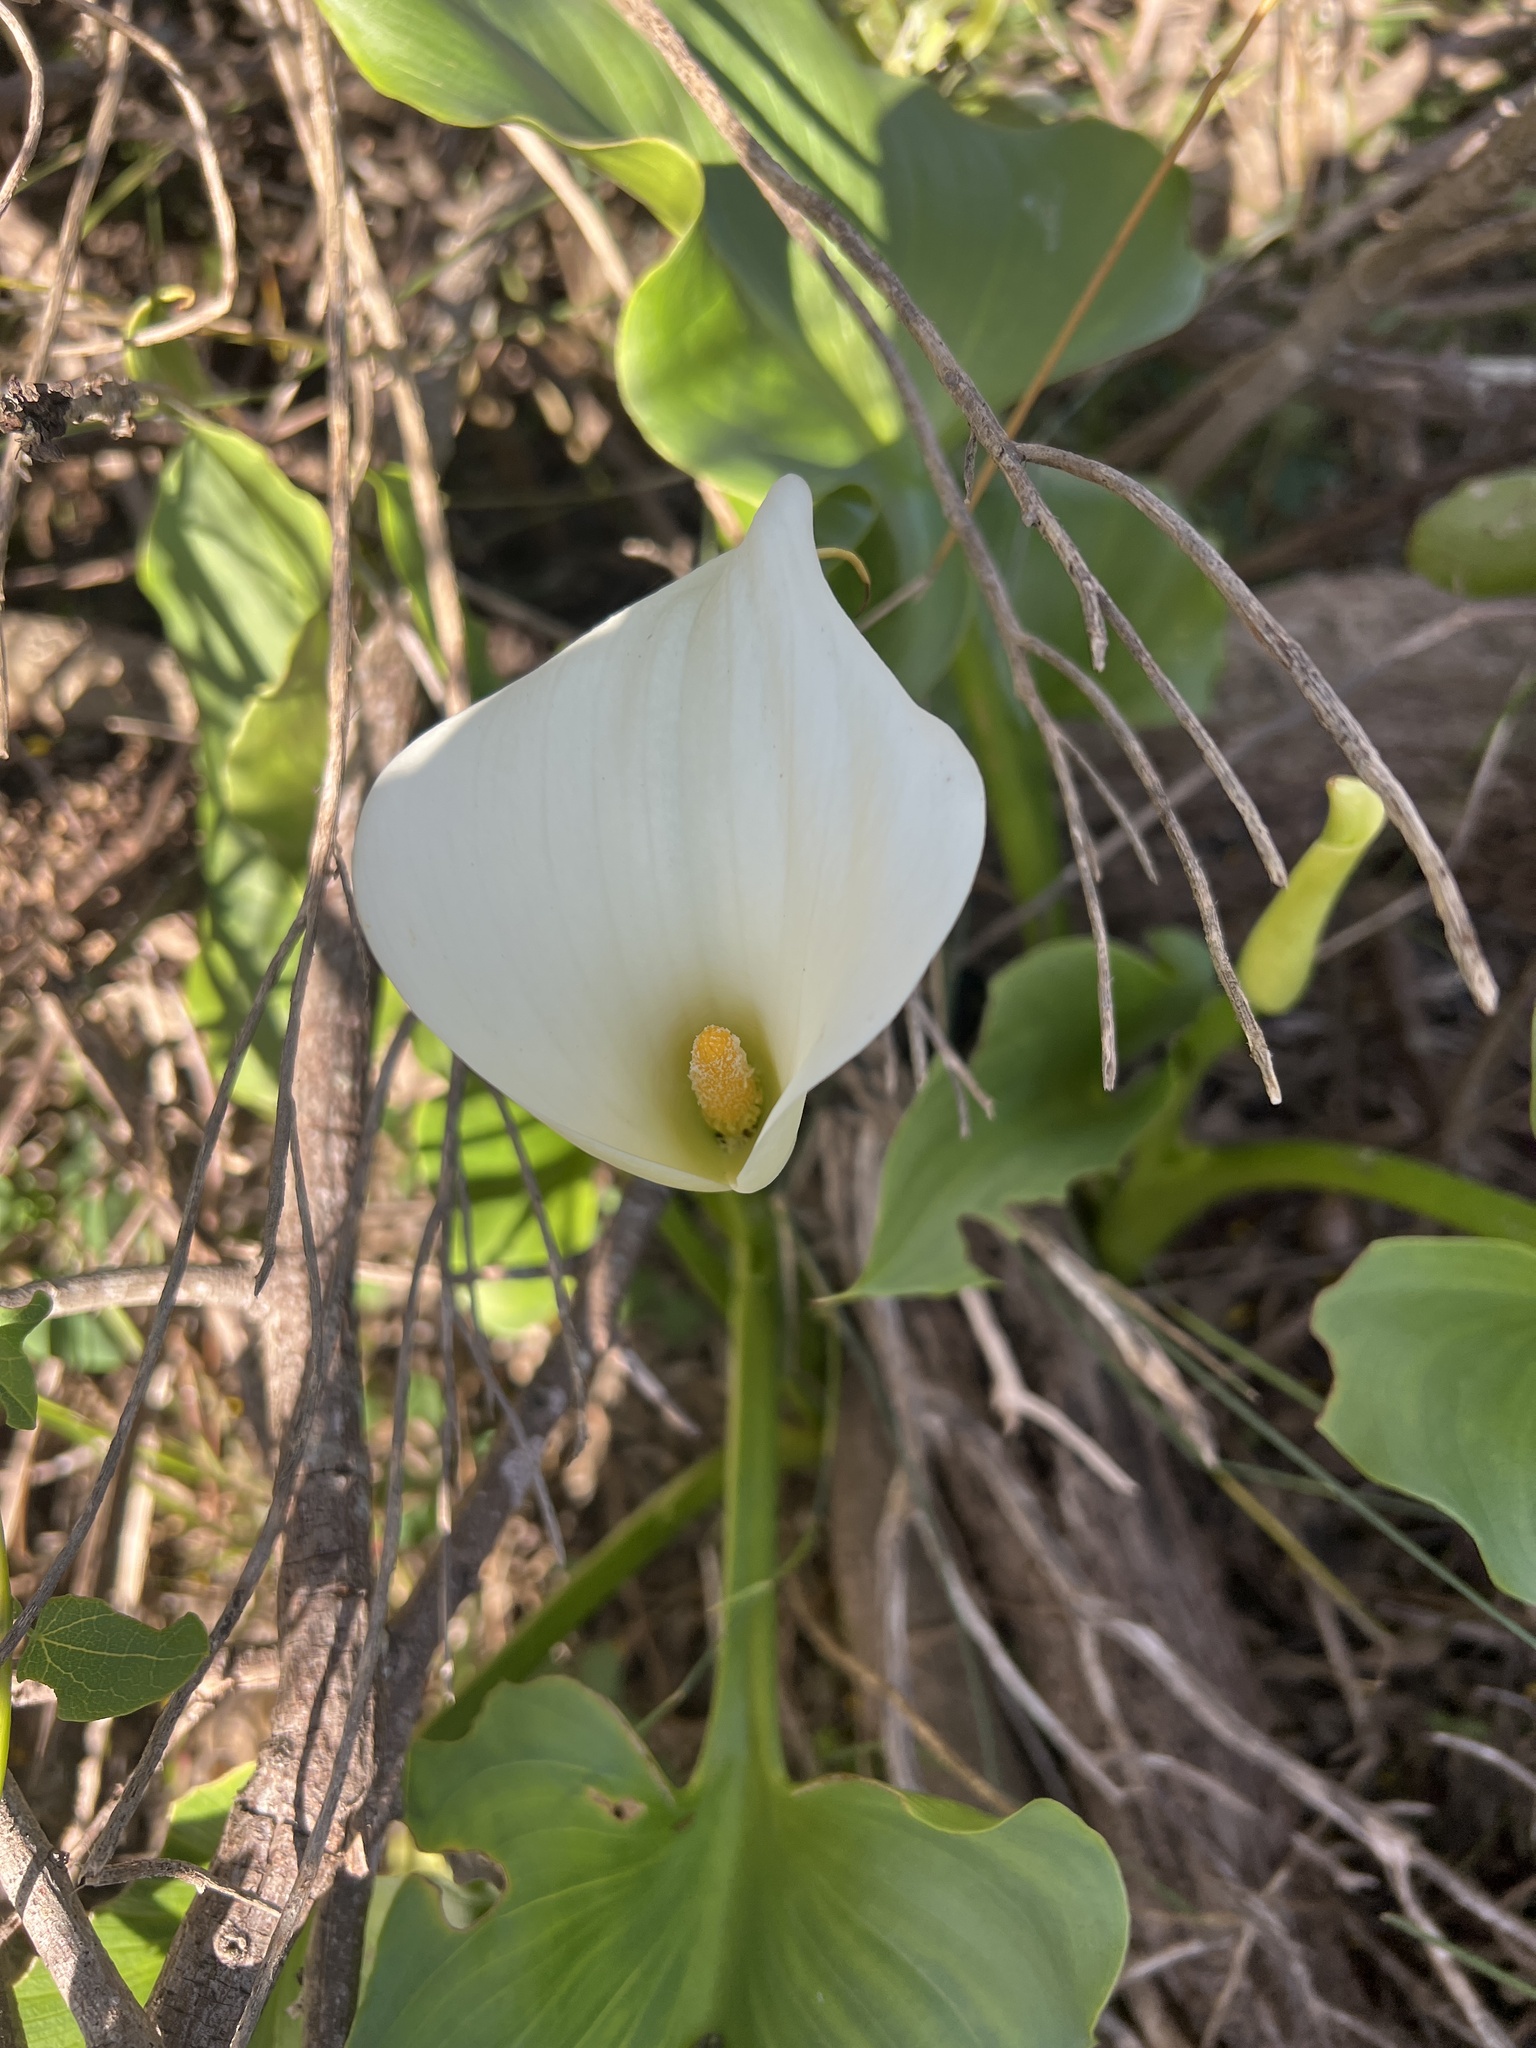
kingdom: Plantae
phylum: Tracheophyta
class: Liliopsida
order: Alismatales
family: Araceae
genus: Zantedeschia
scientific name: Zantedeschia aethiopica
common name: Altar-lily
